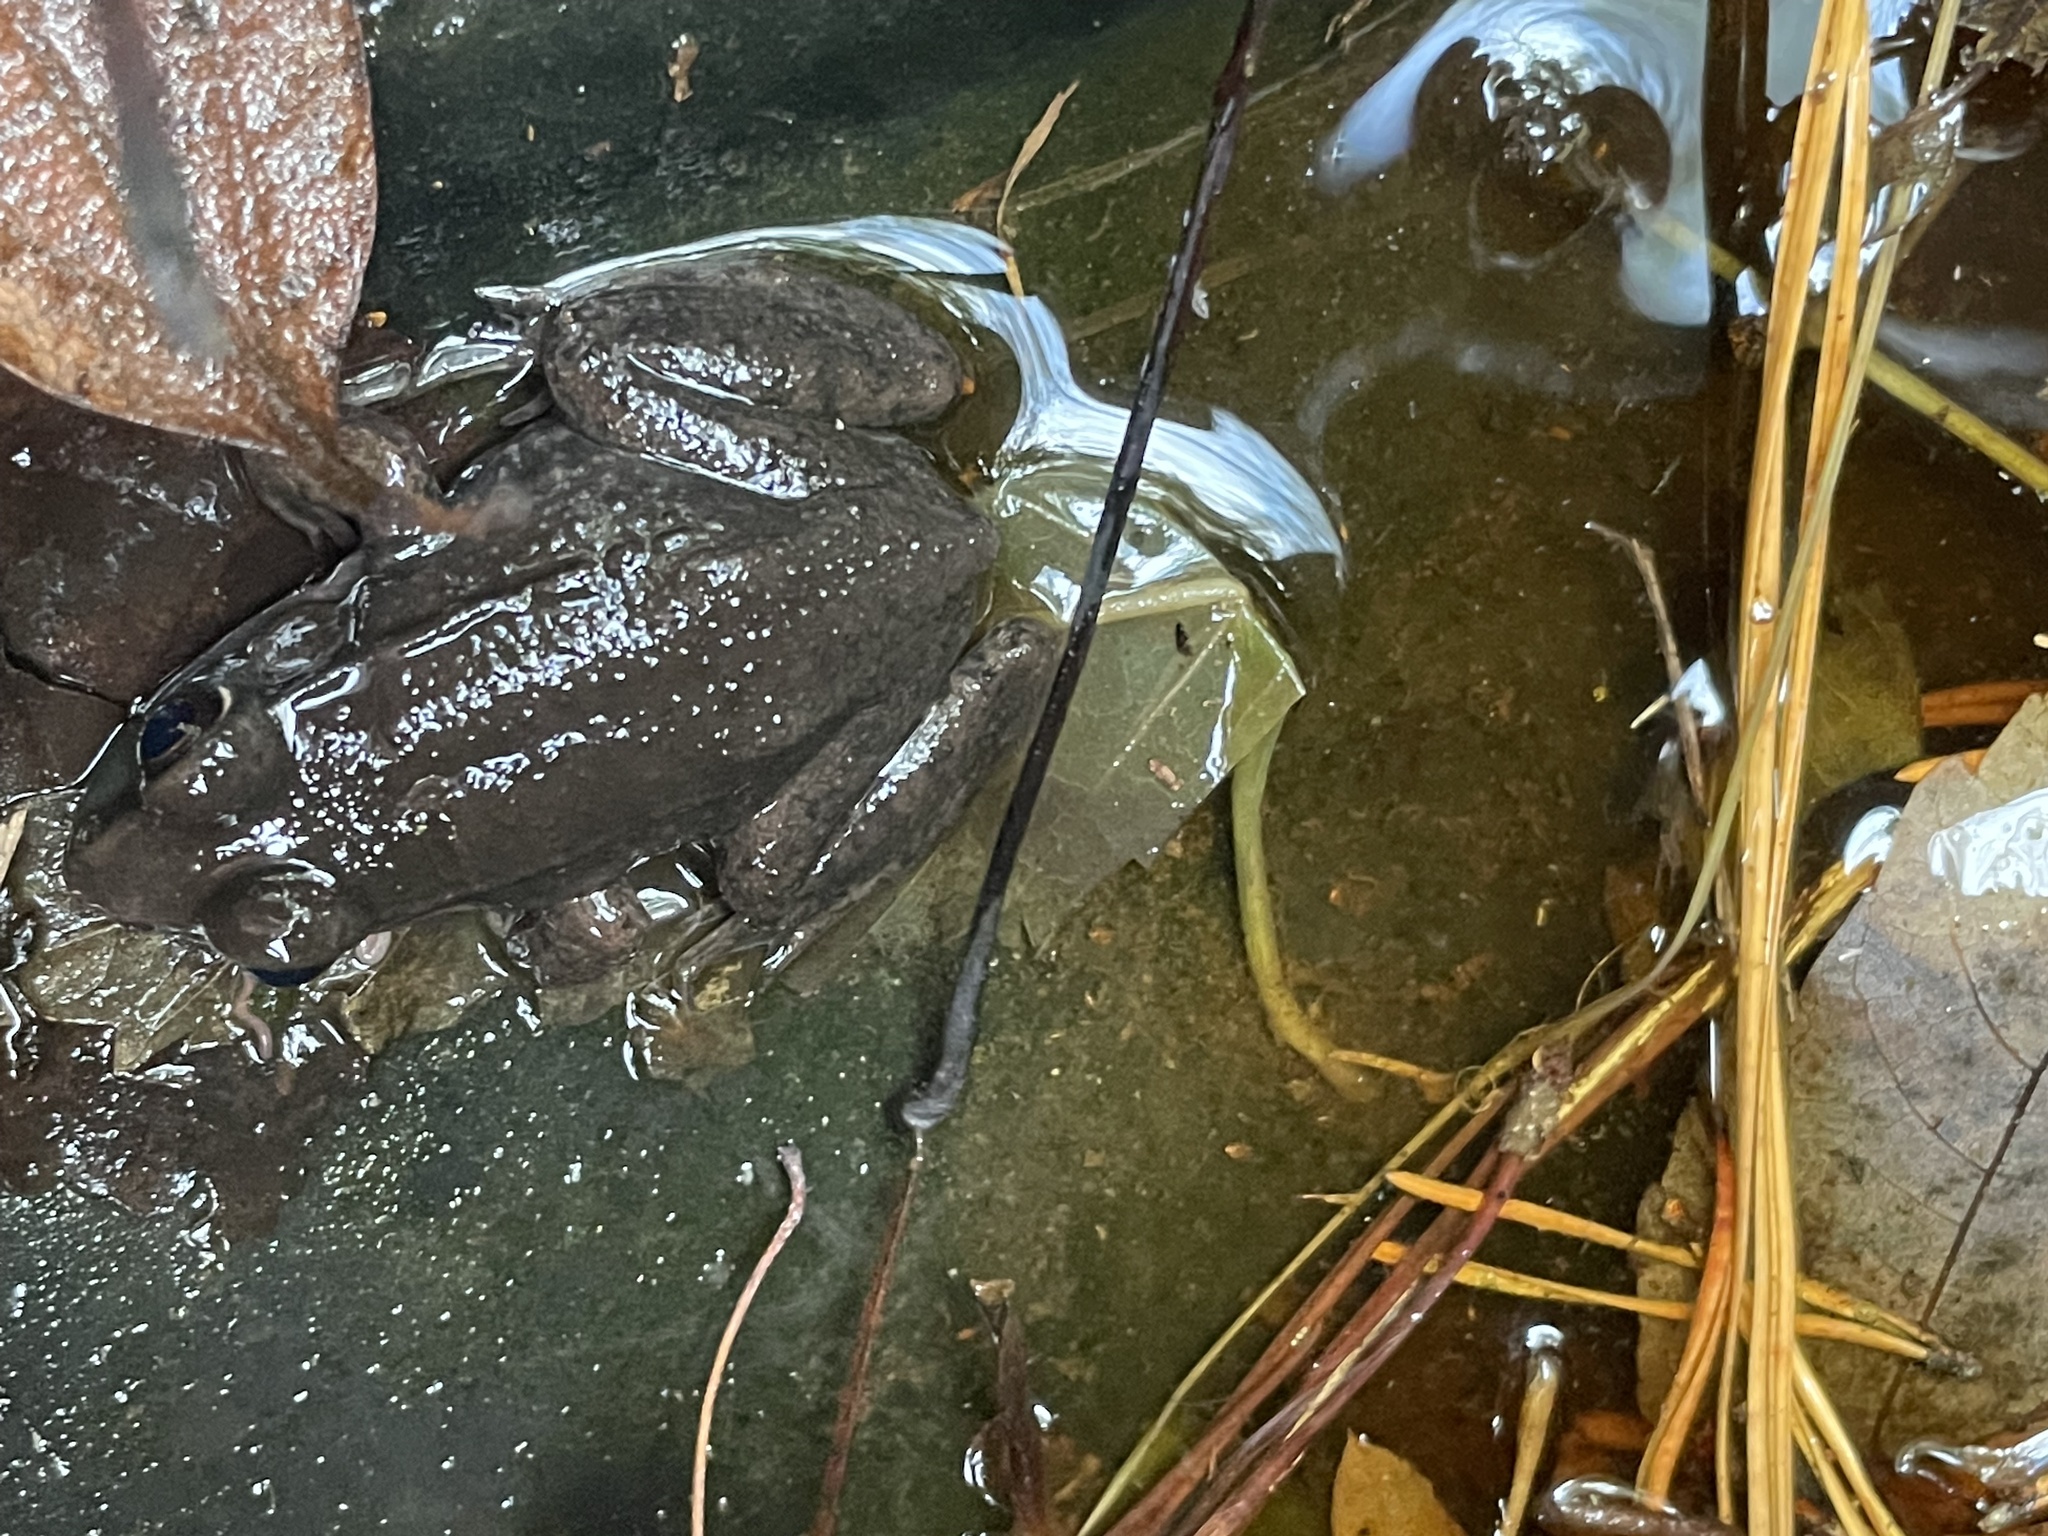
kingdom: Animalia
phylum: Chordata
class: Amphibia
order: Anura
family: Ranidae
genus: Lithobates
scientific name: Lithobates clamitans
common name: Green frog
